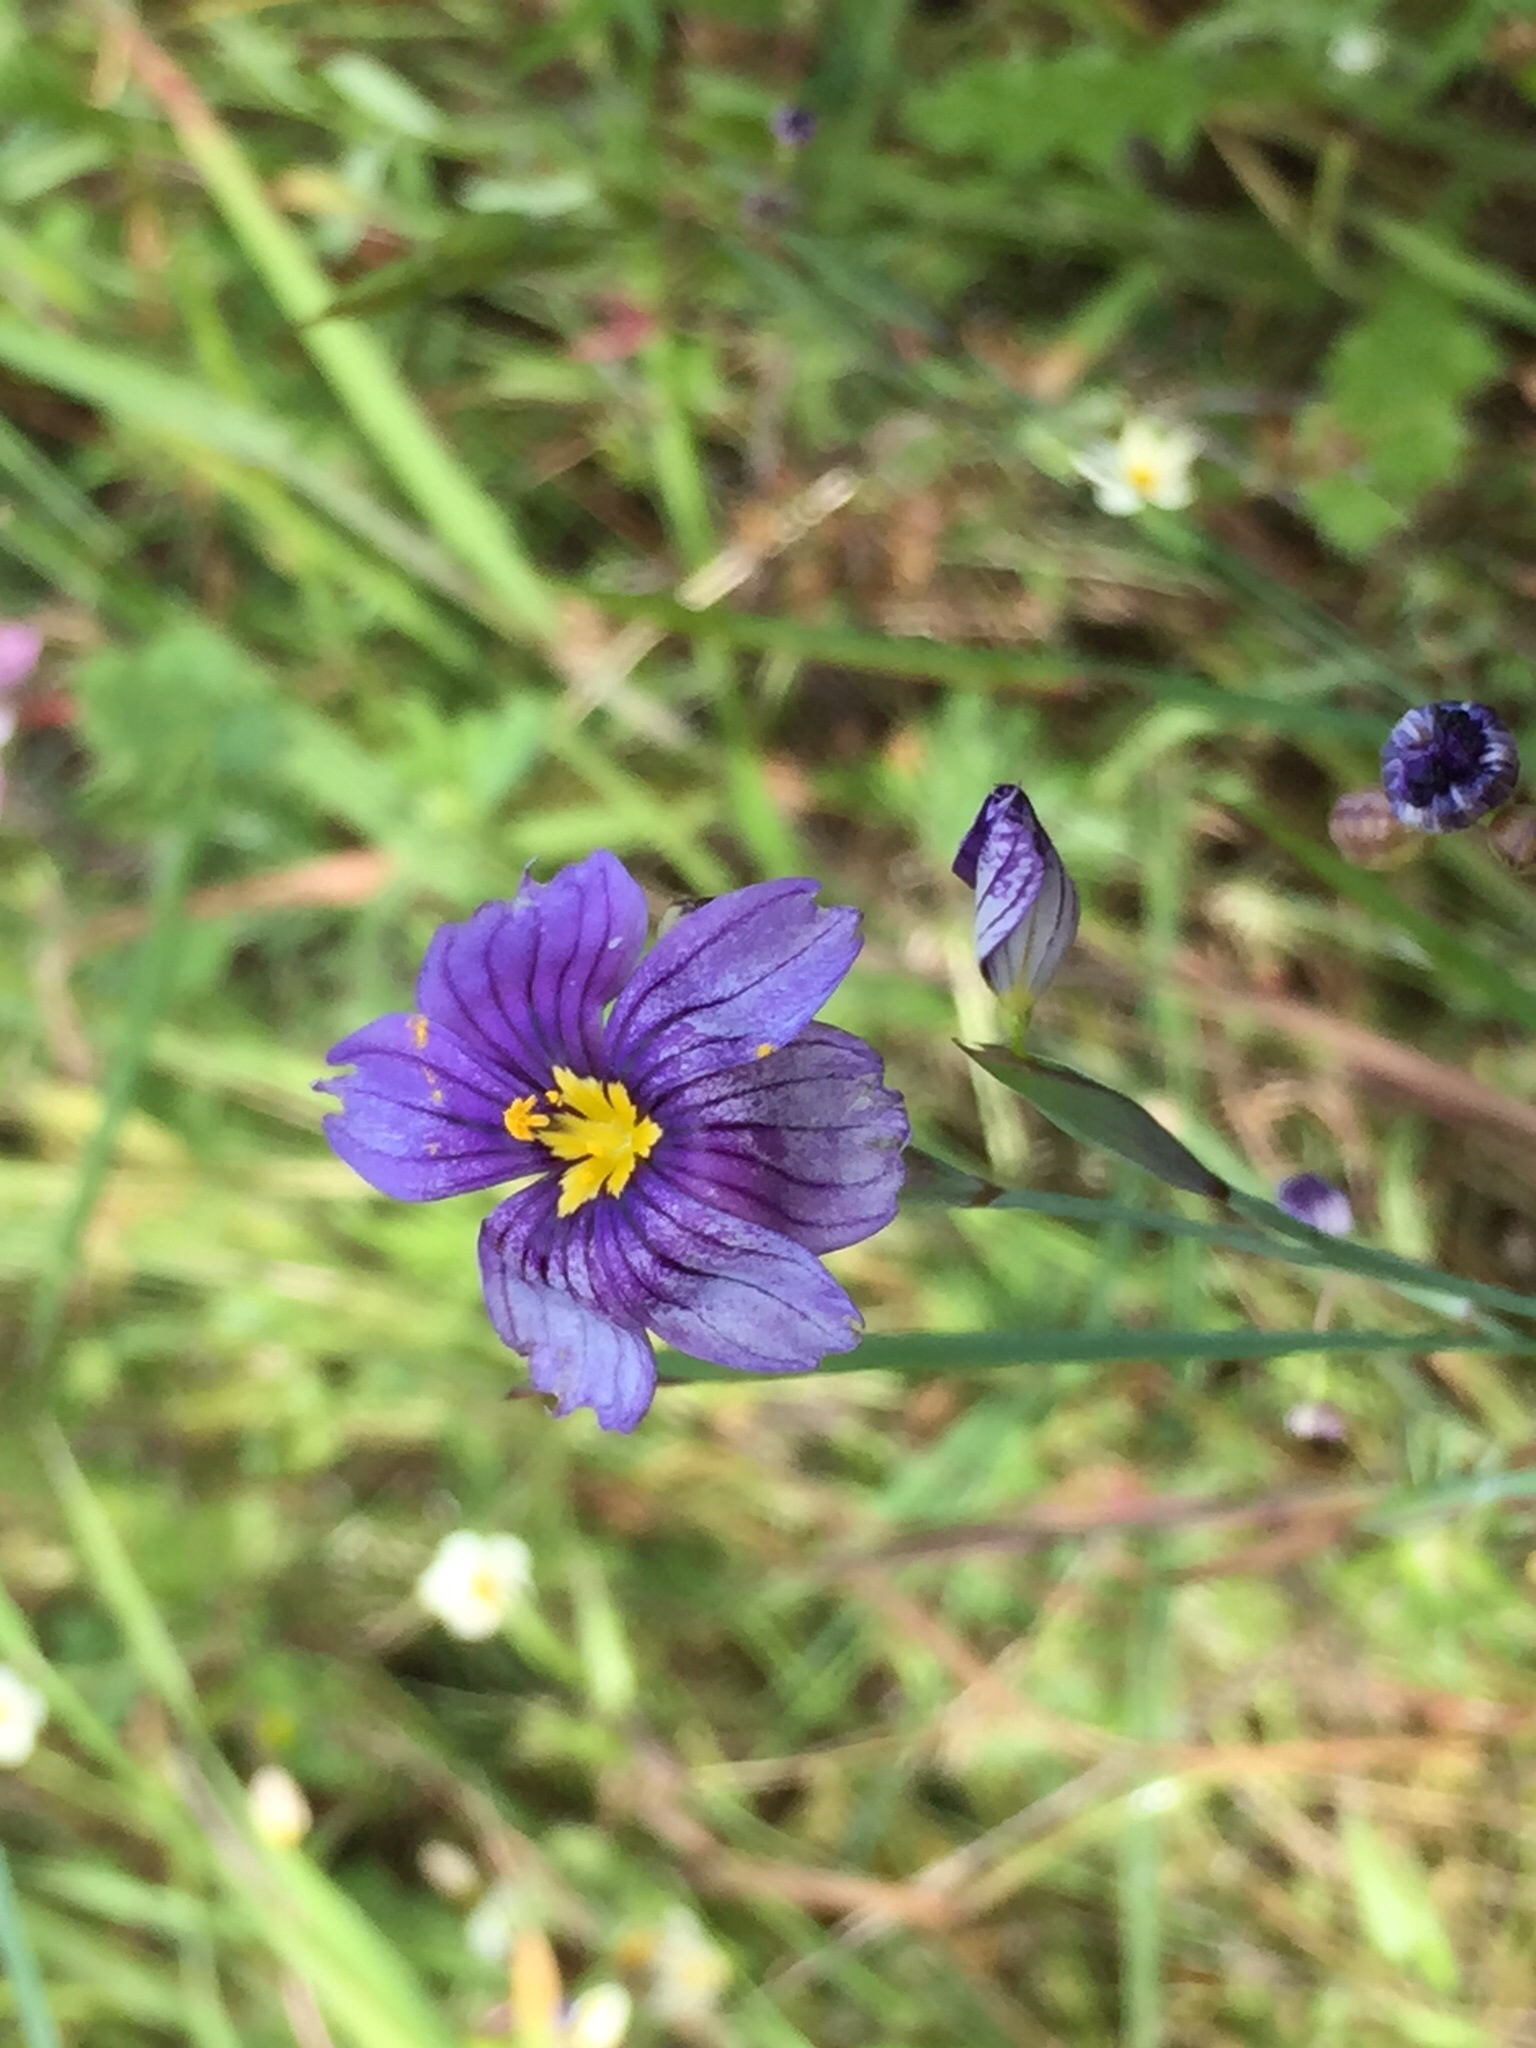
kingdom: Plantae
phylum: Tracheophyta
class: Liliopsida
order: Asparagales
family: Iridaceae
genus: Sisyrinchium
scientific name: Sisyrinchium bellum
